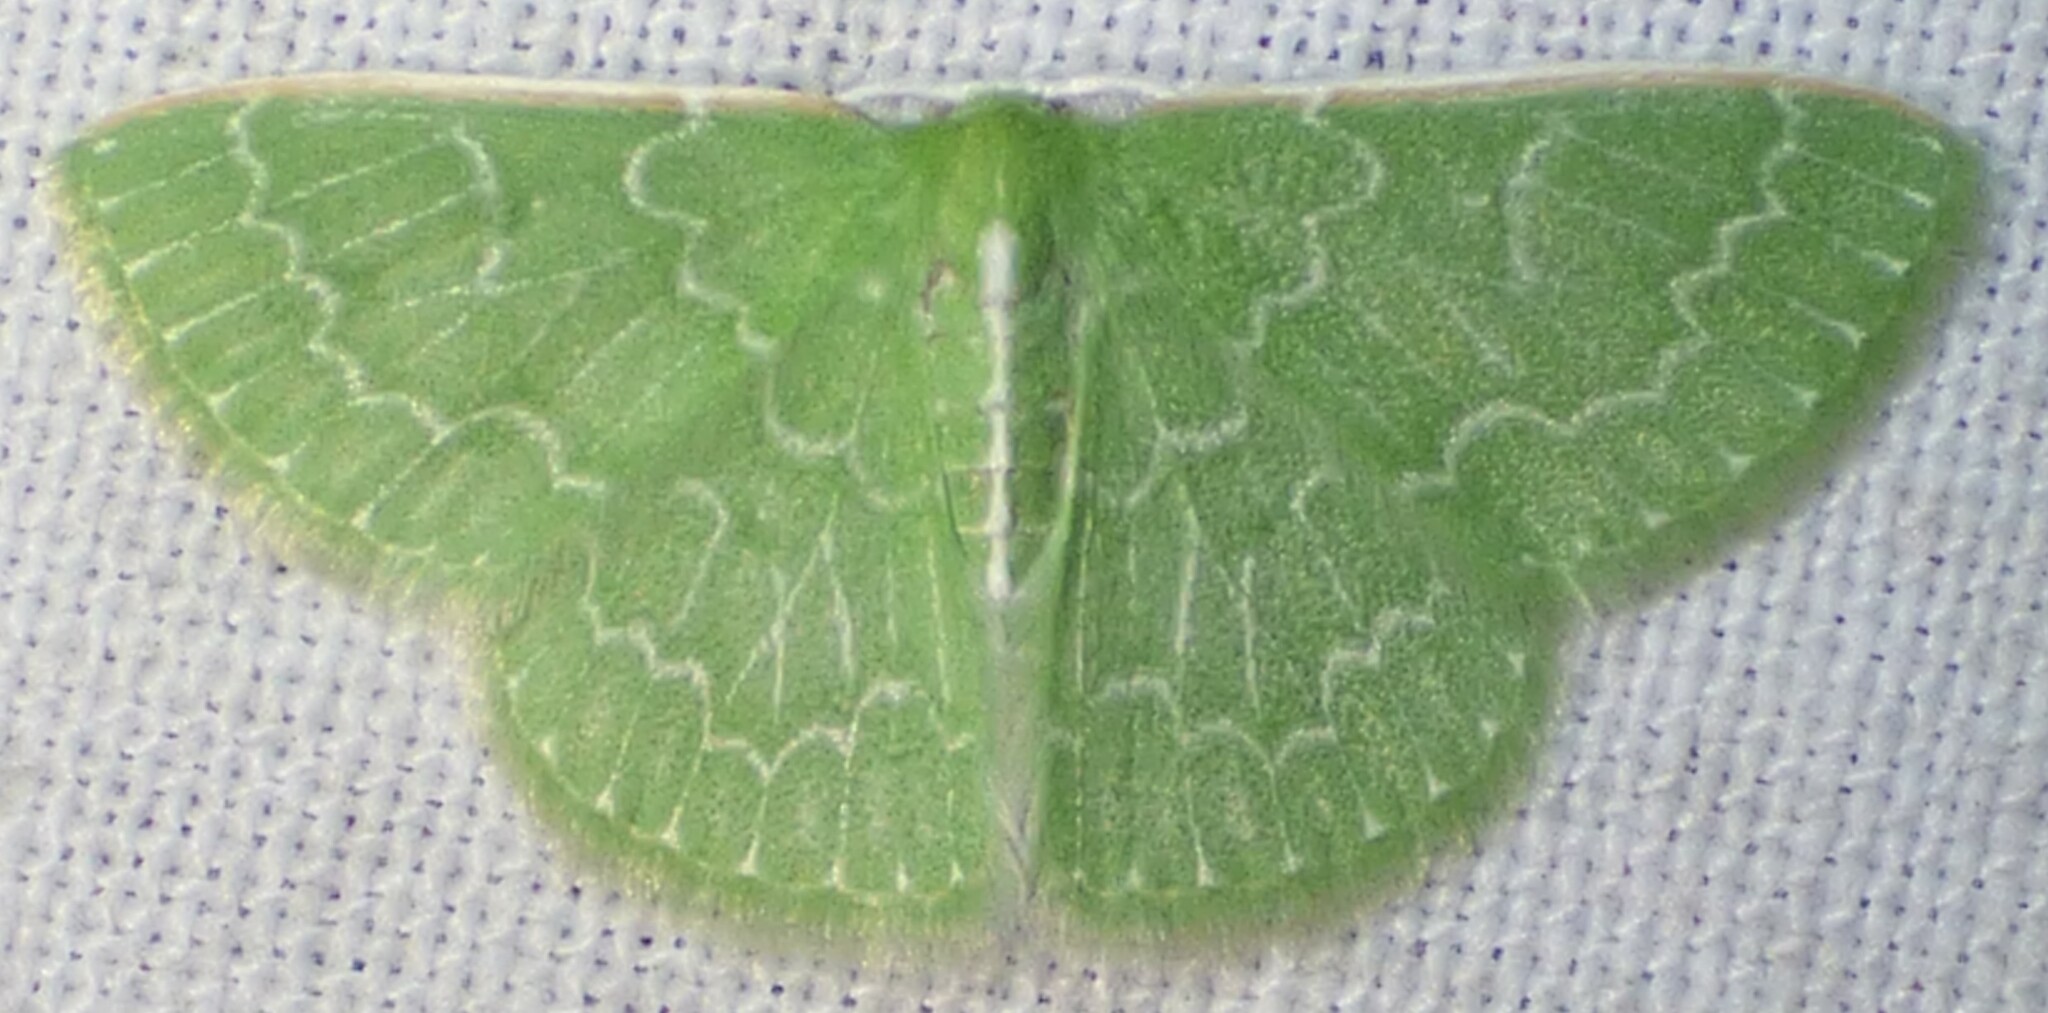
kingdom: Animalia
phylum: Arthropoda
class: Insecta
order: Lepidoptera
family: Geometridae
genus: Synchlora
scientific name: Synchlora frondaria
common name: Southern emerald
